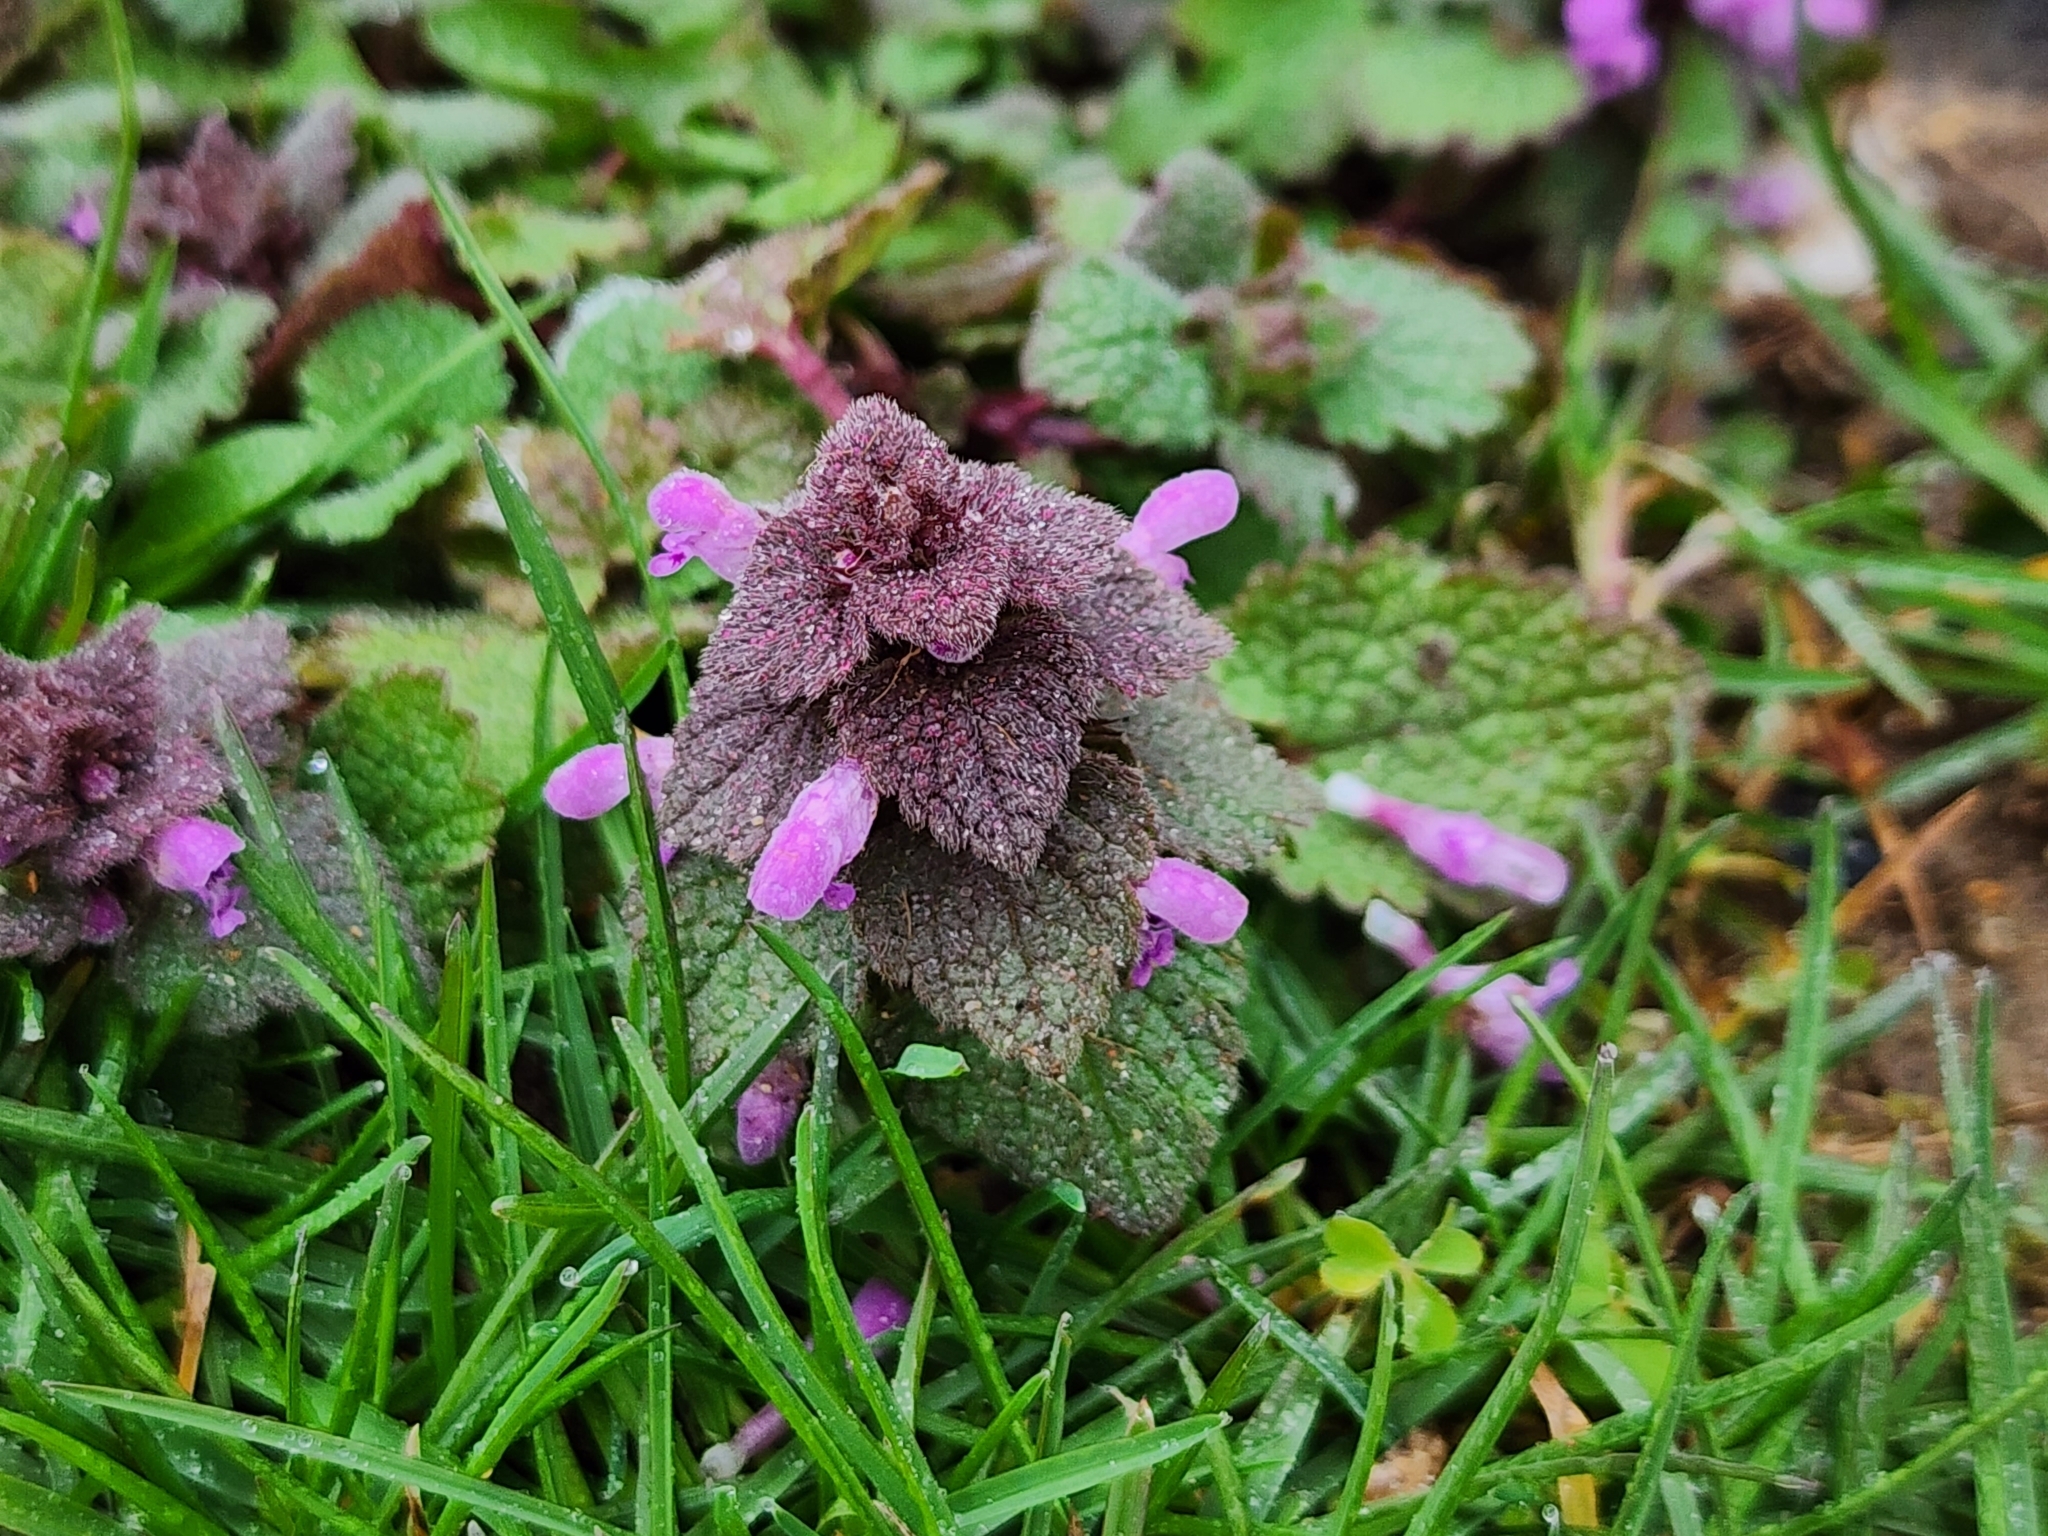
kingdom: Plantae
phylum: Tracheophyta
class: Magnoliopsida
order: Lamiales
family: Lamiaceae
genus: Lamium
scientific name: Lamium purpureum
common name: Red dead-nettle
